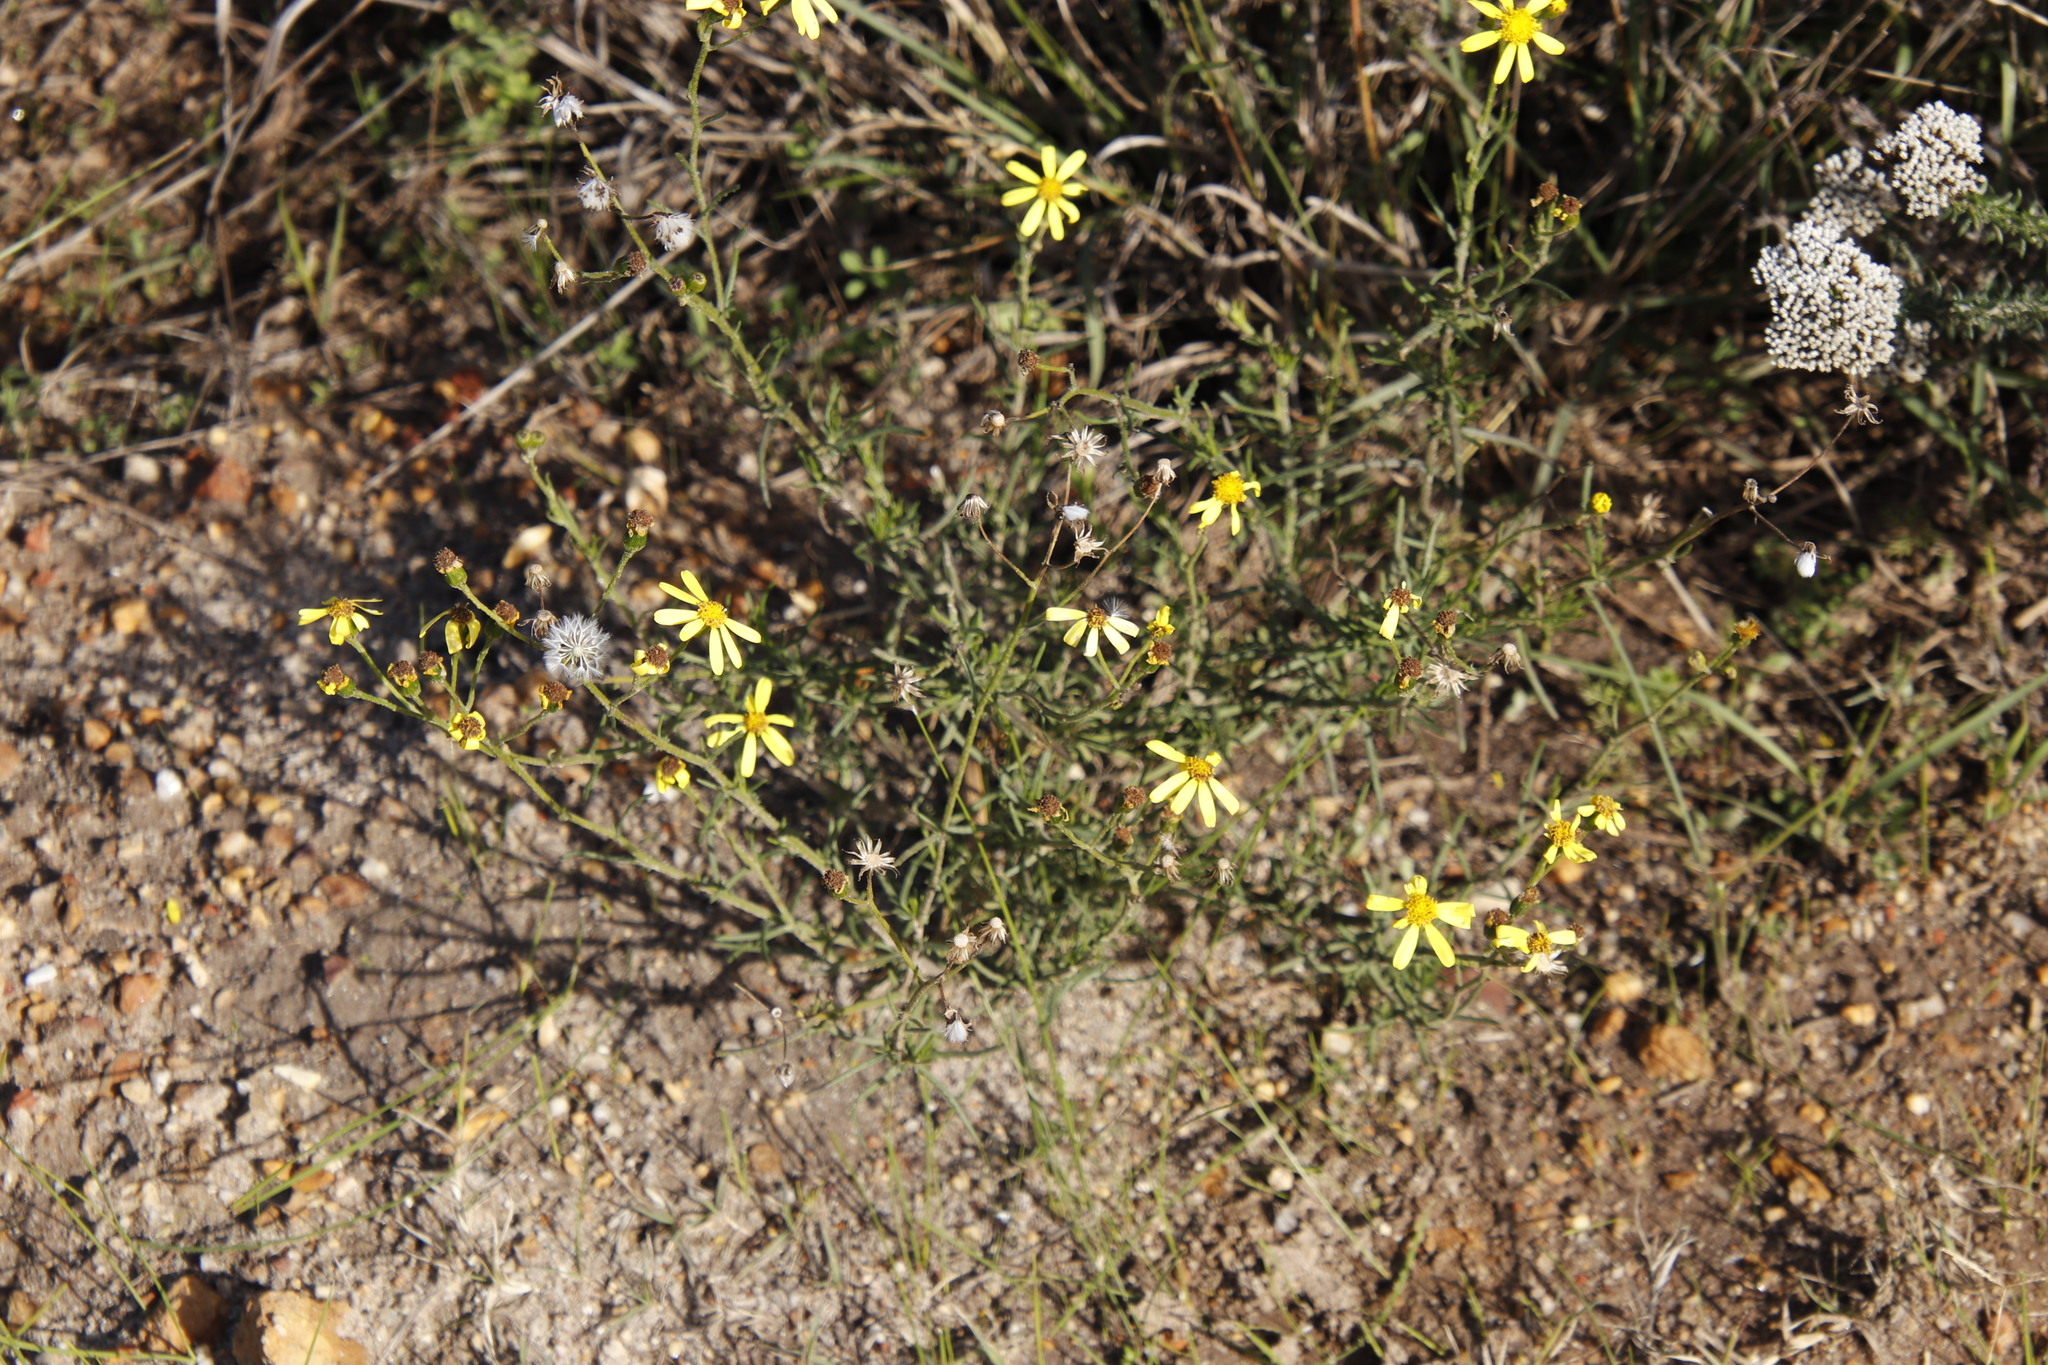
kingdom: Plantae
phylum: Tracheophyta
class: Magnoliopsida
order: Asterales
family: Asteraceae
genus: Senecio
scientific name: Senecio burchellii
